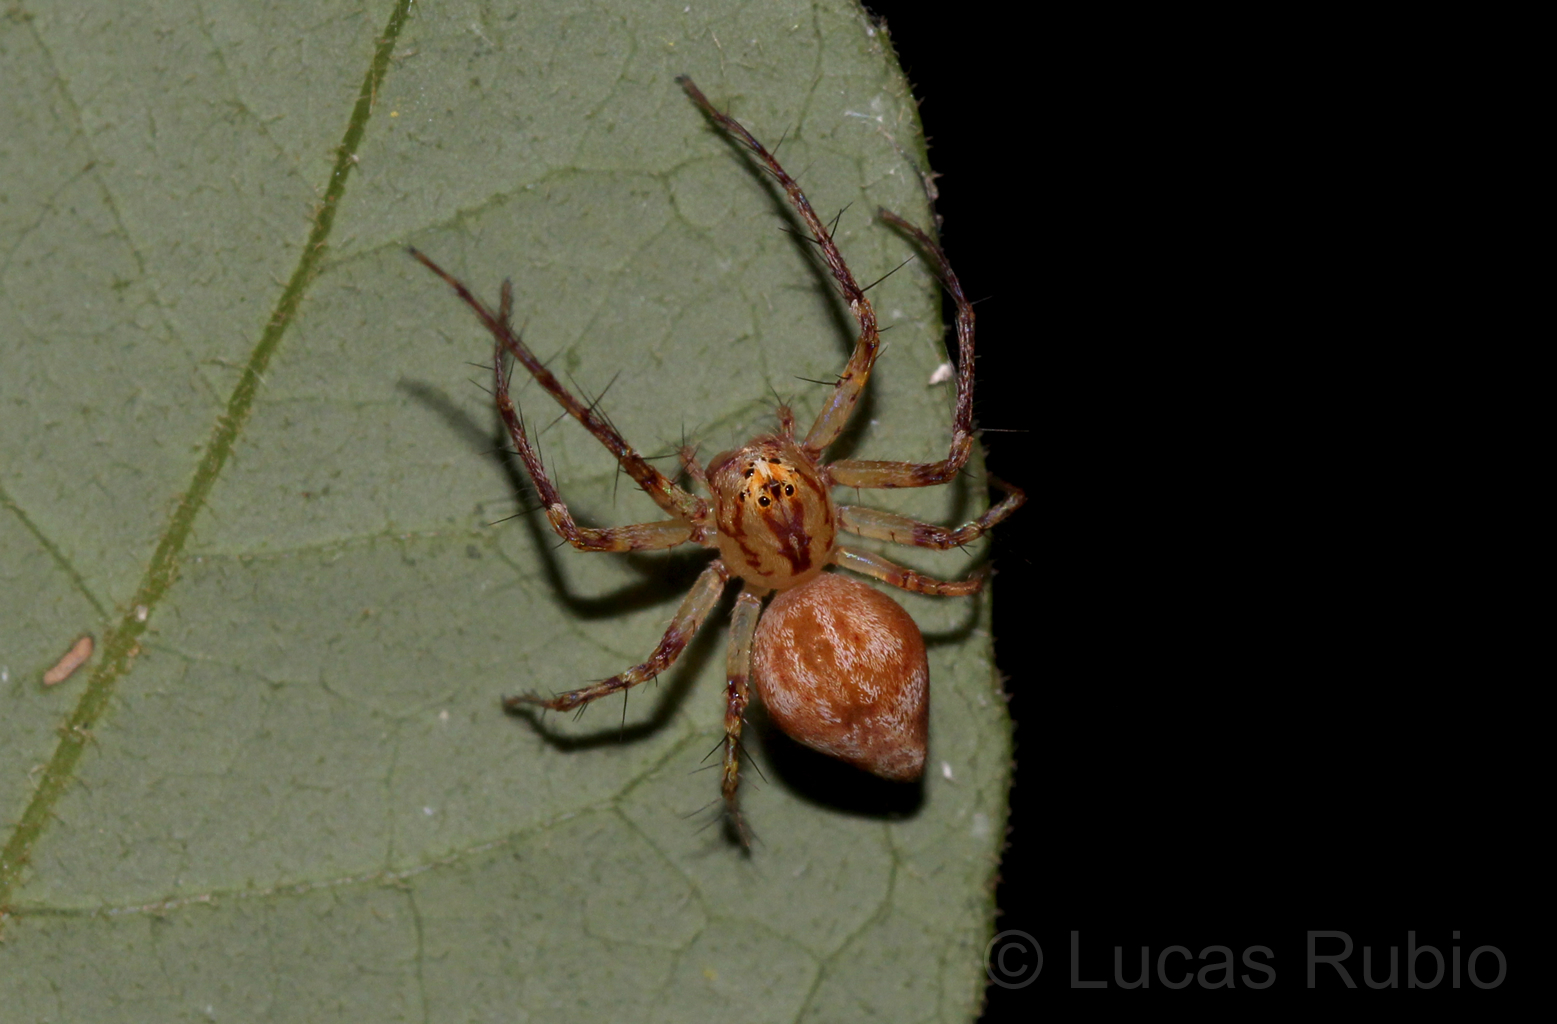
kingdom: Animalia
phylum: Arthropoda
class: Arachnida
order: Araneae
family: Oxyopidae
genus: Hamataliwa
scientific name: Hamataliwa
